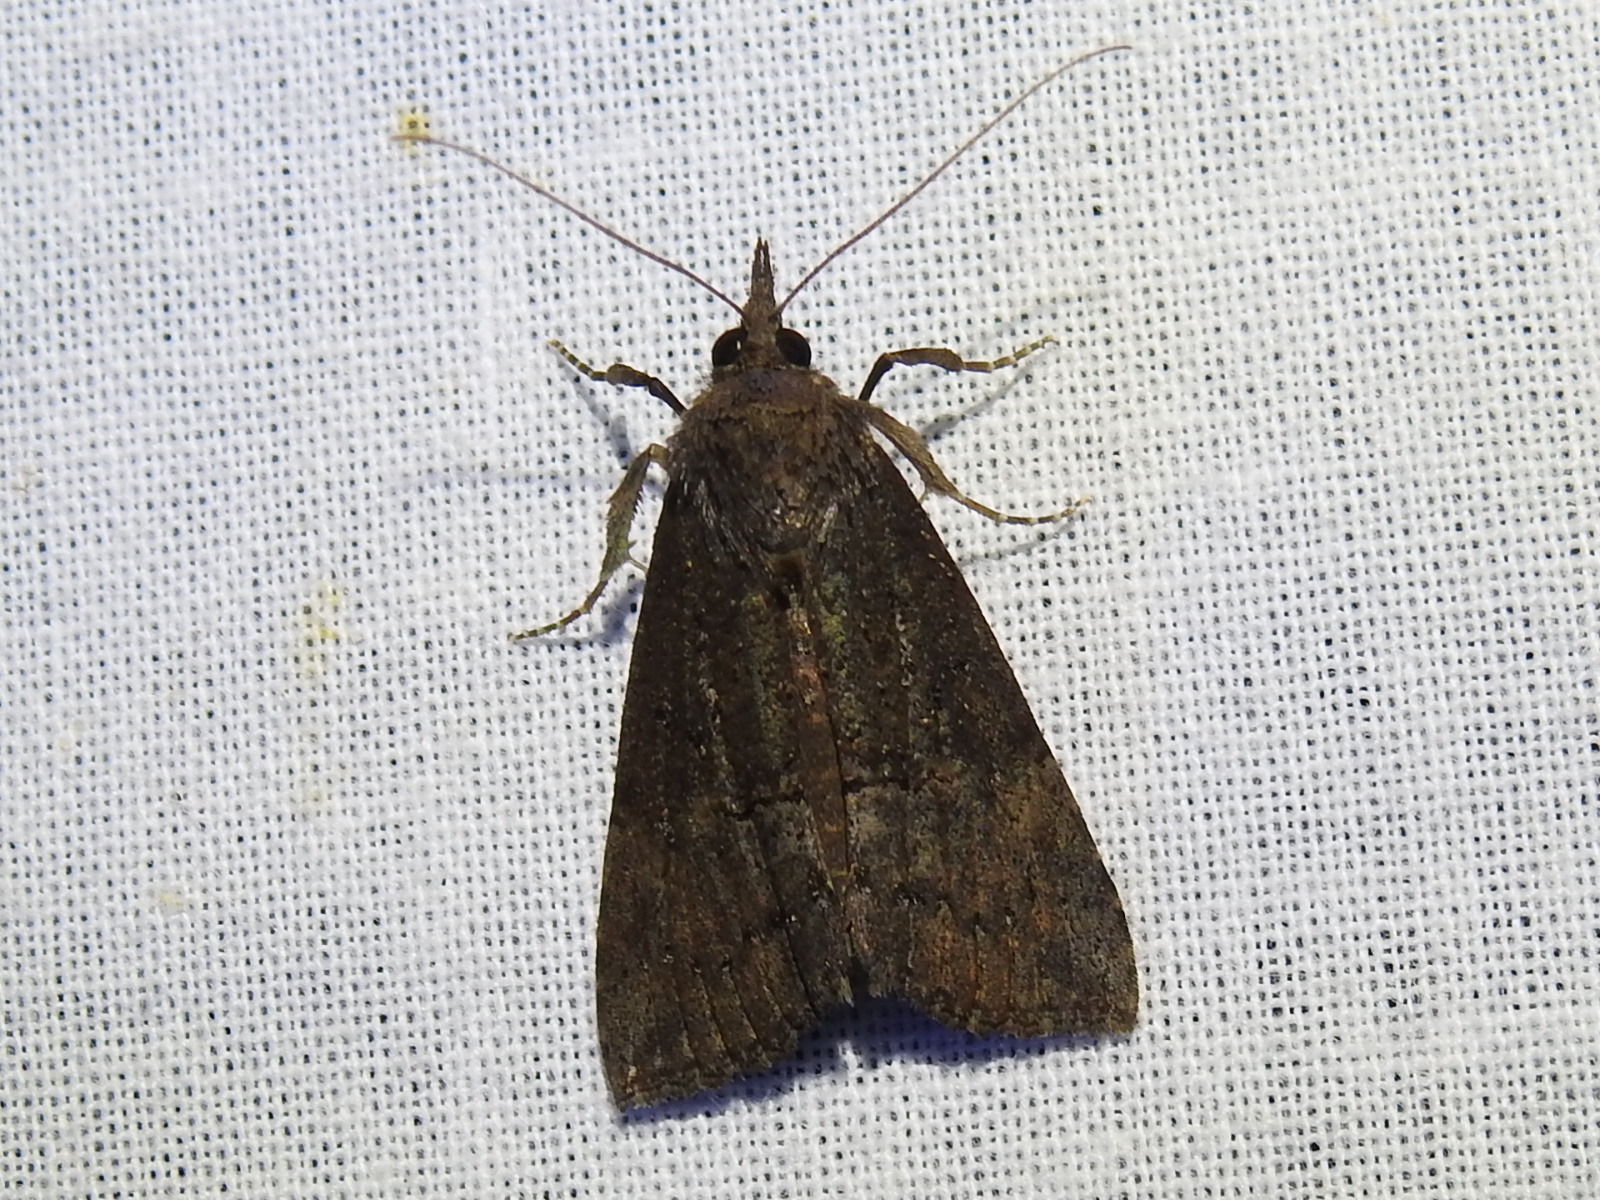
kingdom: Animalia
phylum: Arthropoda
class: Insecta
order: Lepidoptera
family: Erebidae
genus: Hypena
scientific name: Hypena scabra
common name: Green cloverworm
